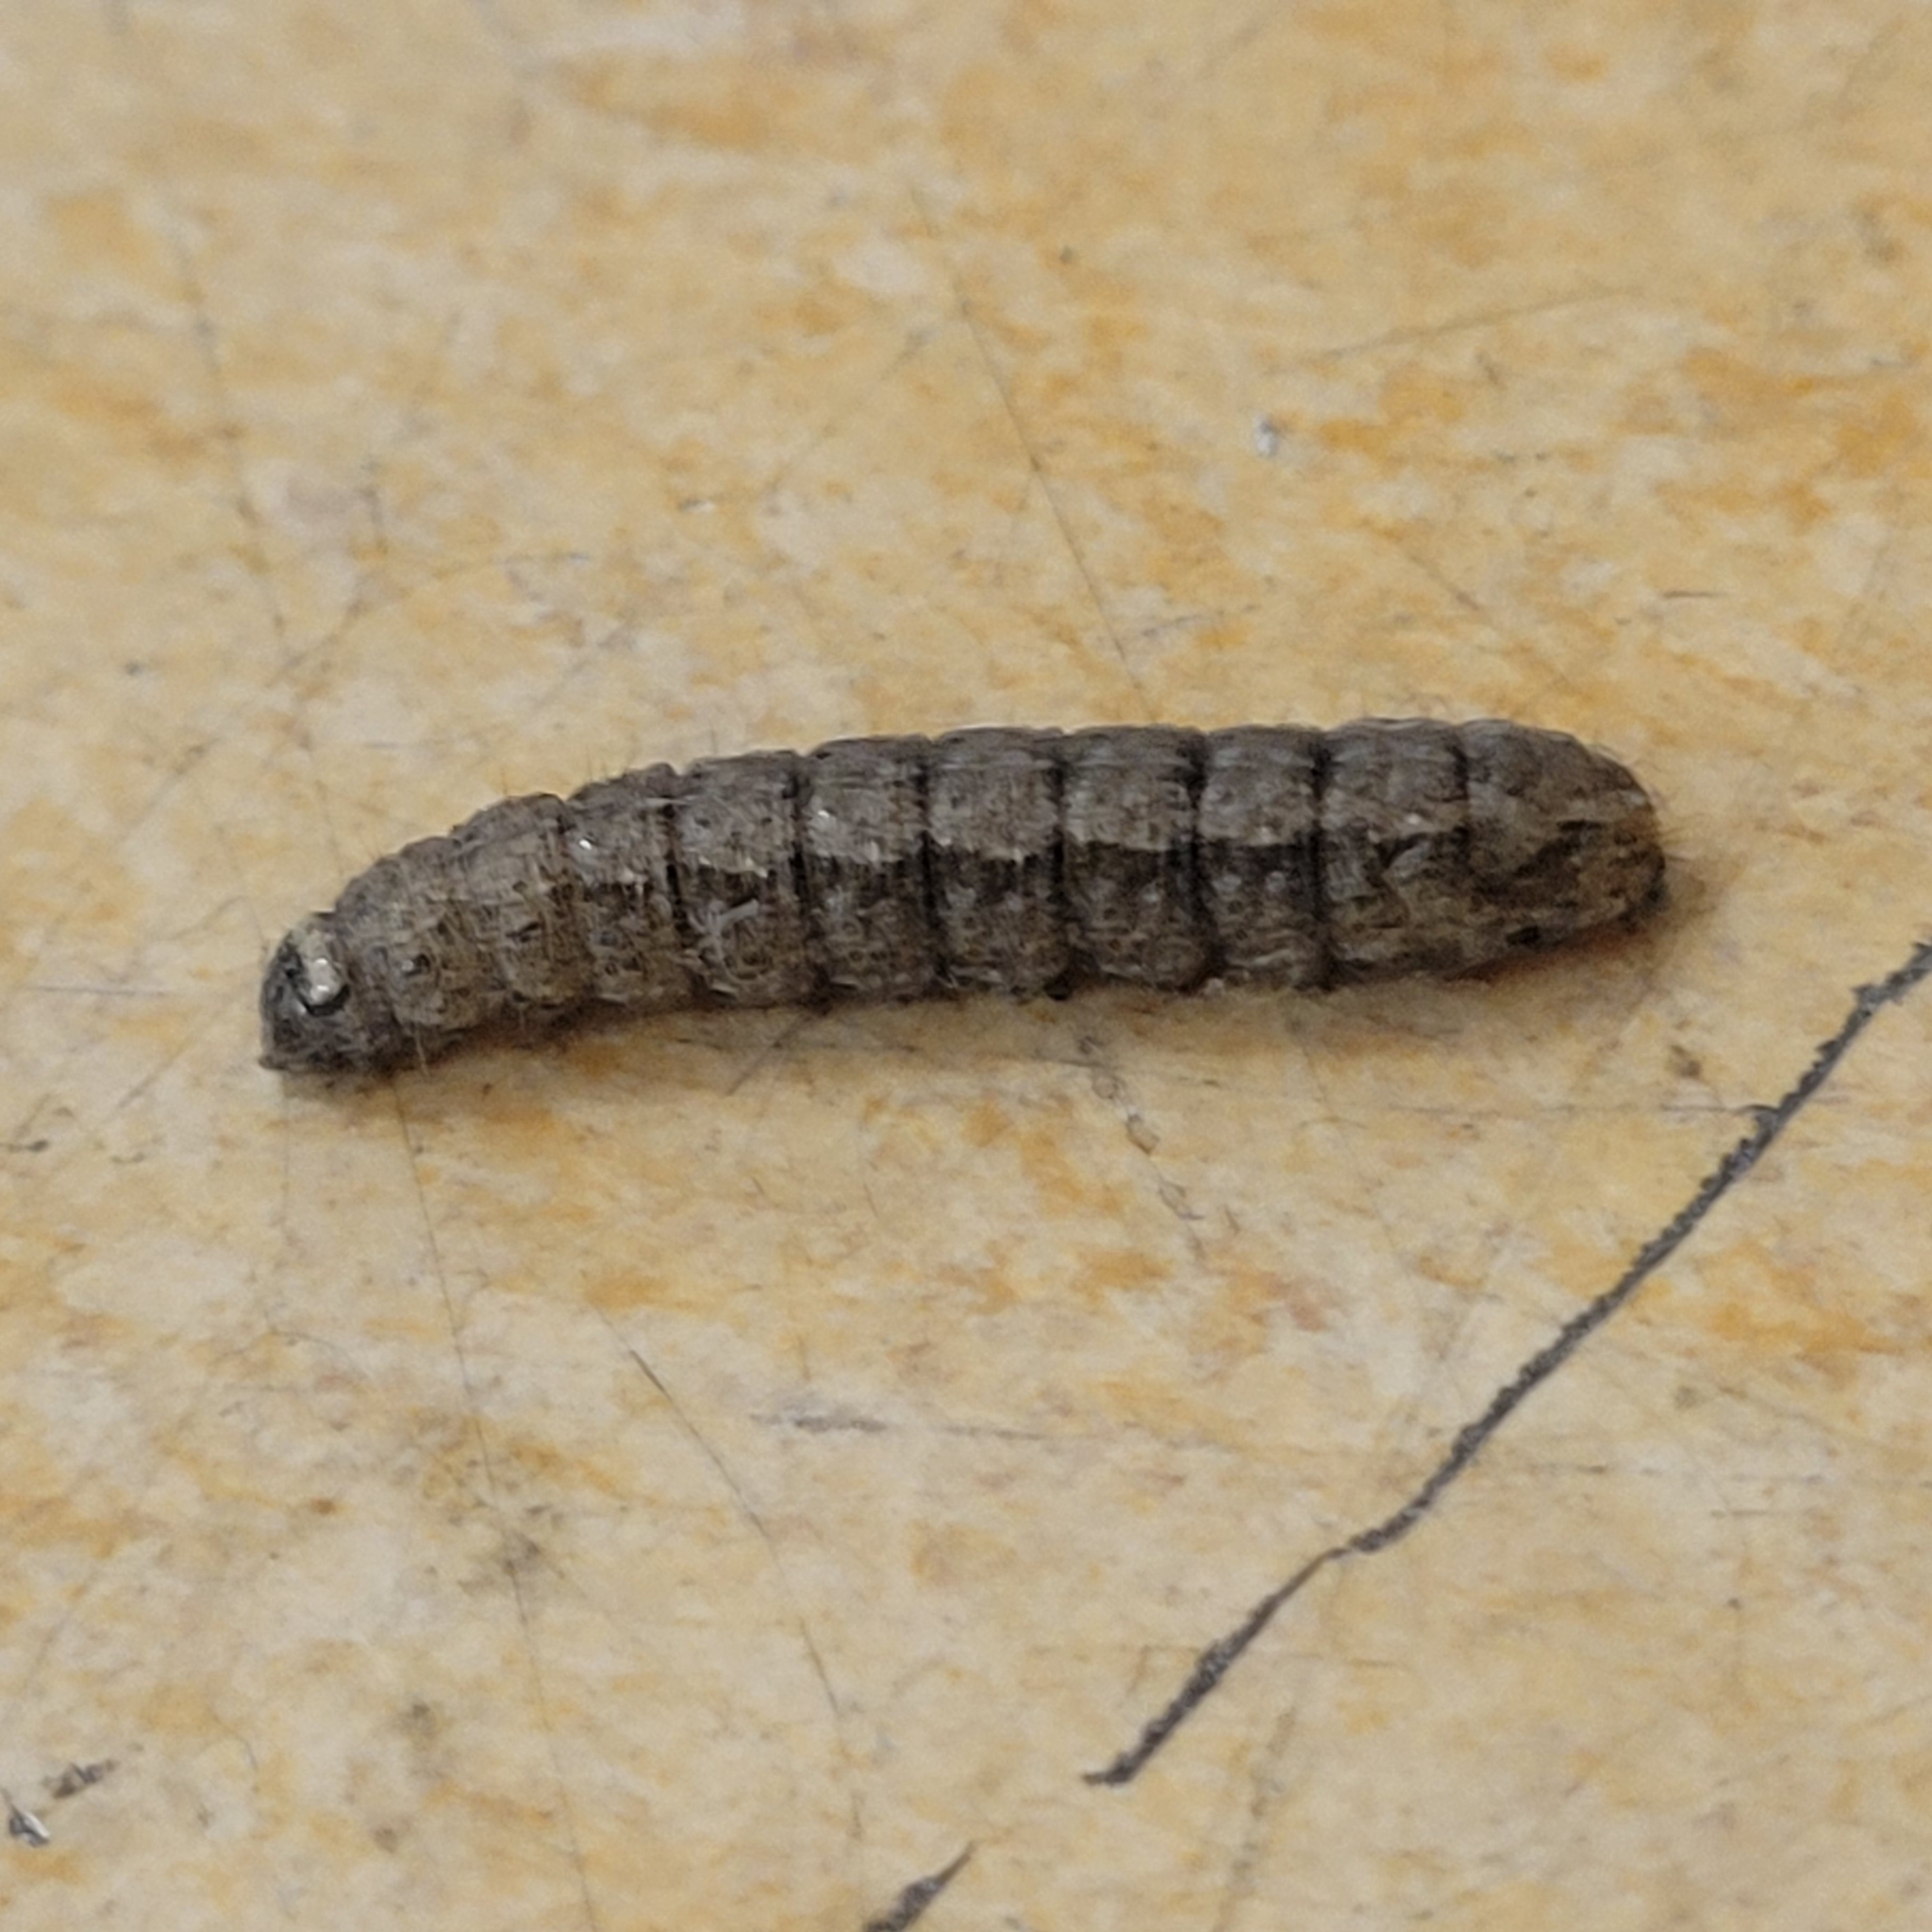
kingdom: Animalia
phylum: Arthropoda
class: Insecta
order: Lepidoptera
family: Noctuidae
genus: Peridroma
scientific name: Peridroma saucia
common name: Pearly underwing
